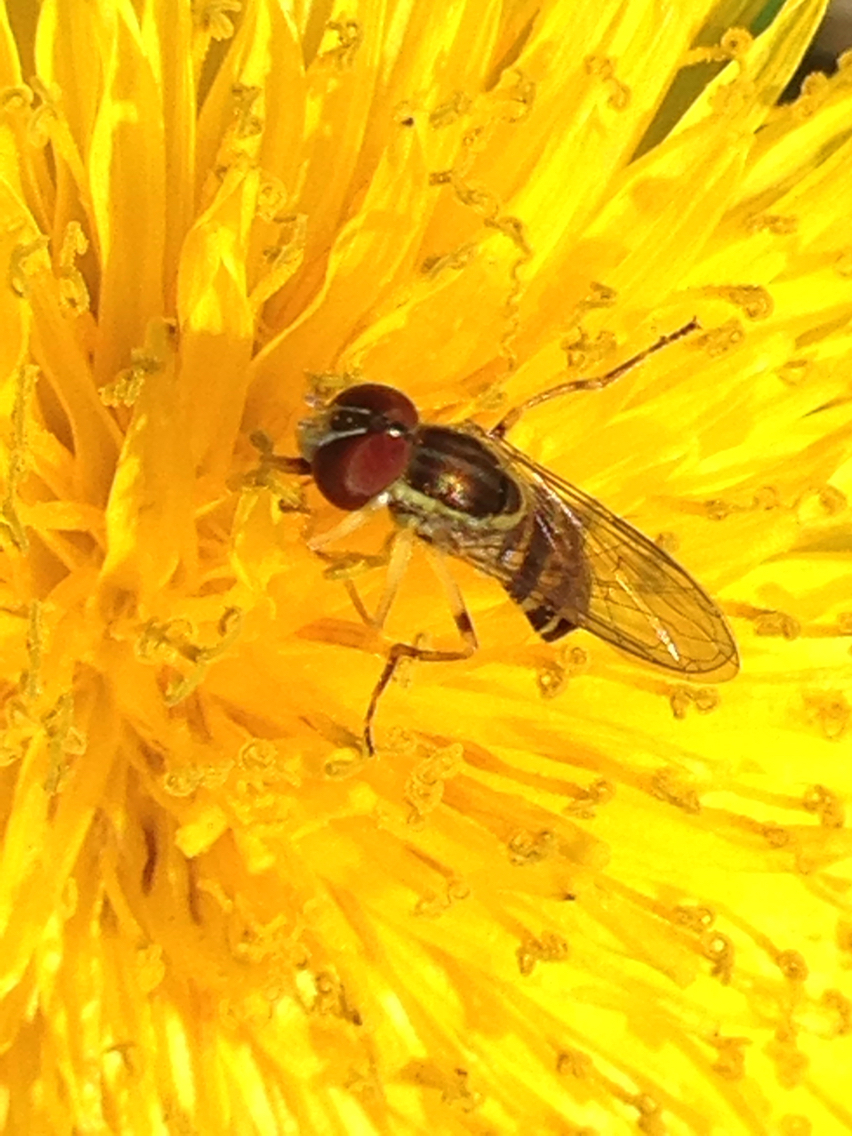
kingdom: Animalia
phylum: Arthropoda
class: Insecta
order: Diptera
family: Syrphidae
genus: Toxomerus
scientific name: Toxomerus geminatus
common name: Eastern calligrapher
